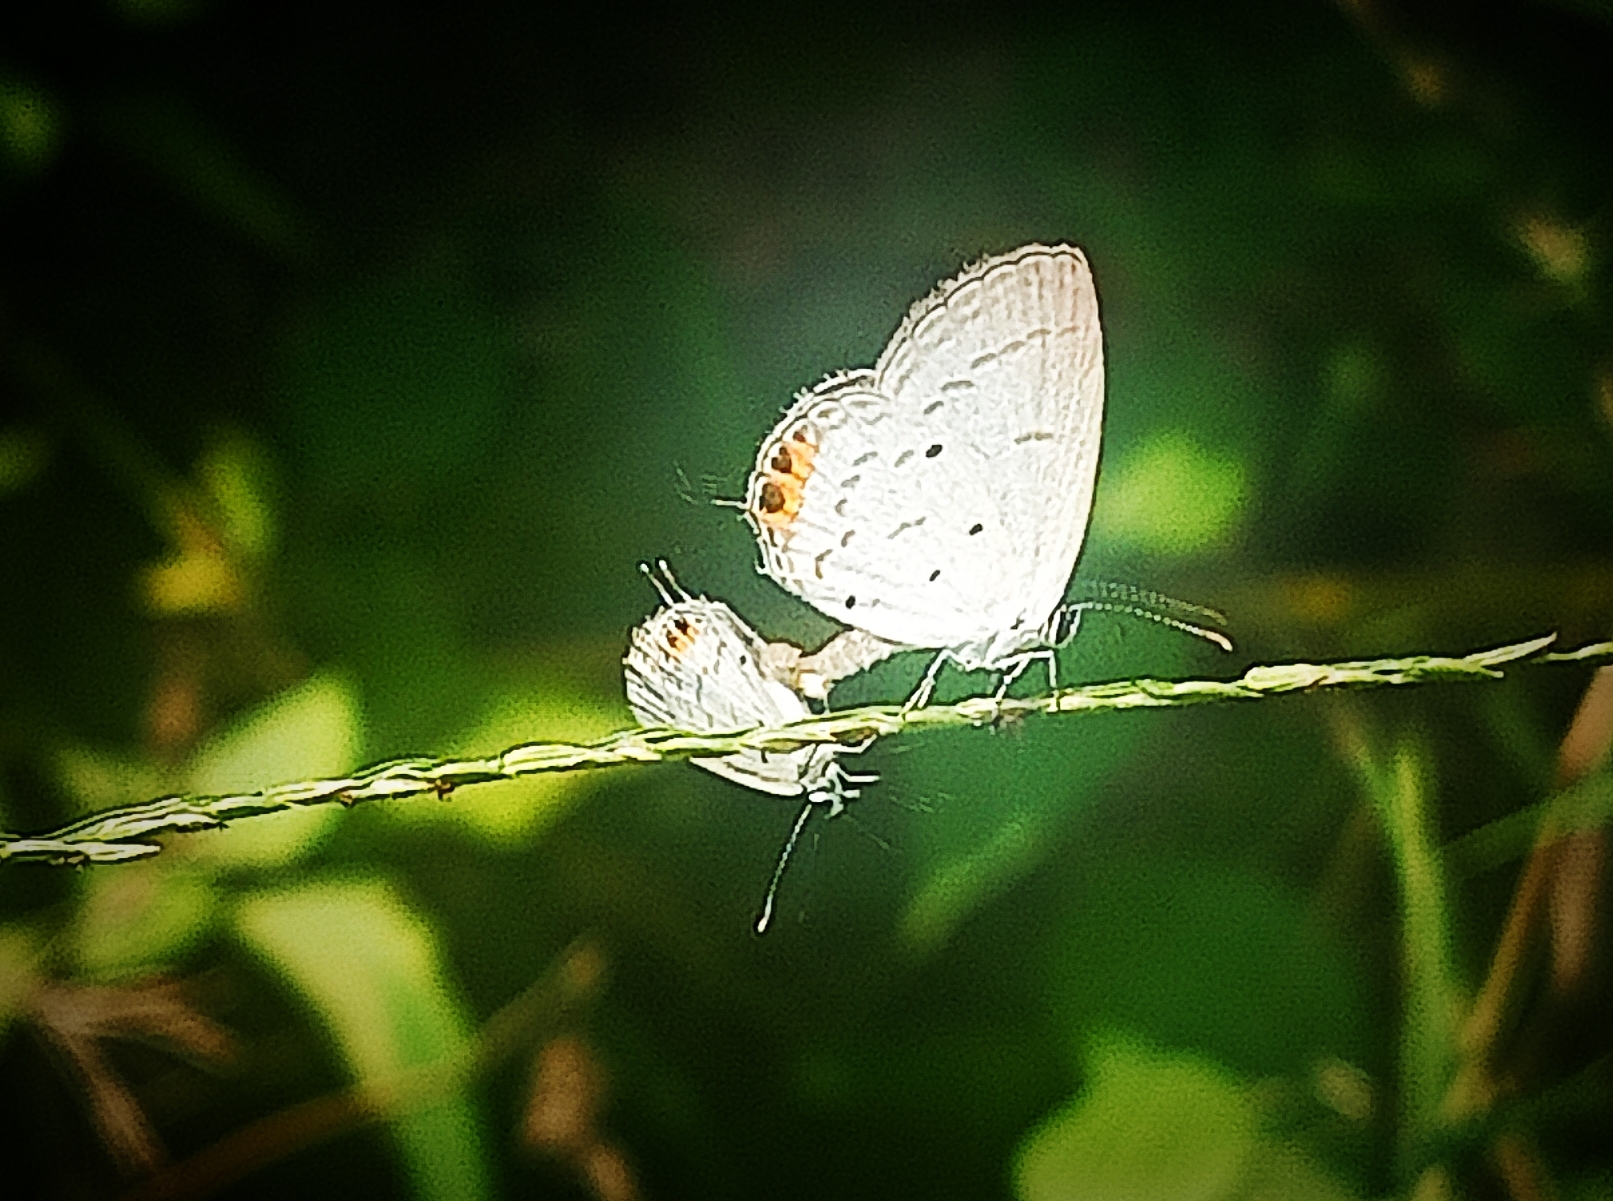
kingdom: Animalia
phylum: Arthropoda
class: Insecta
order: Lepidoptera
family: Lycaenidae
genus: Everes
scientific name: Everes lacturnus
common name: Orange-tipped pea-blue
